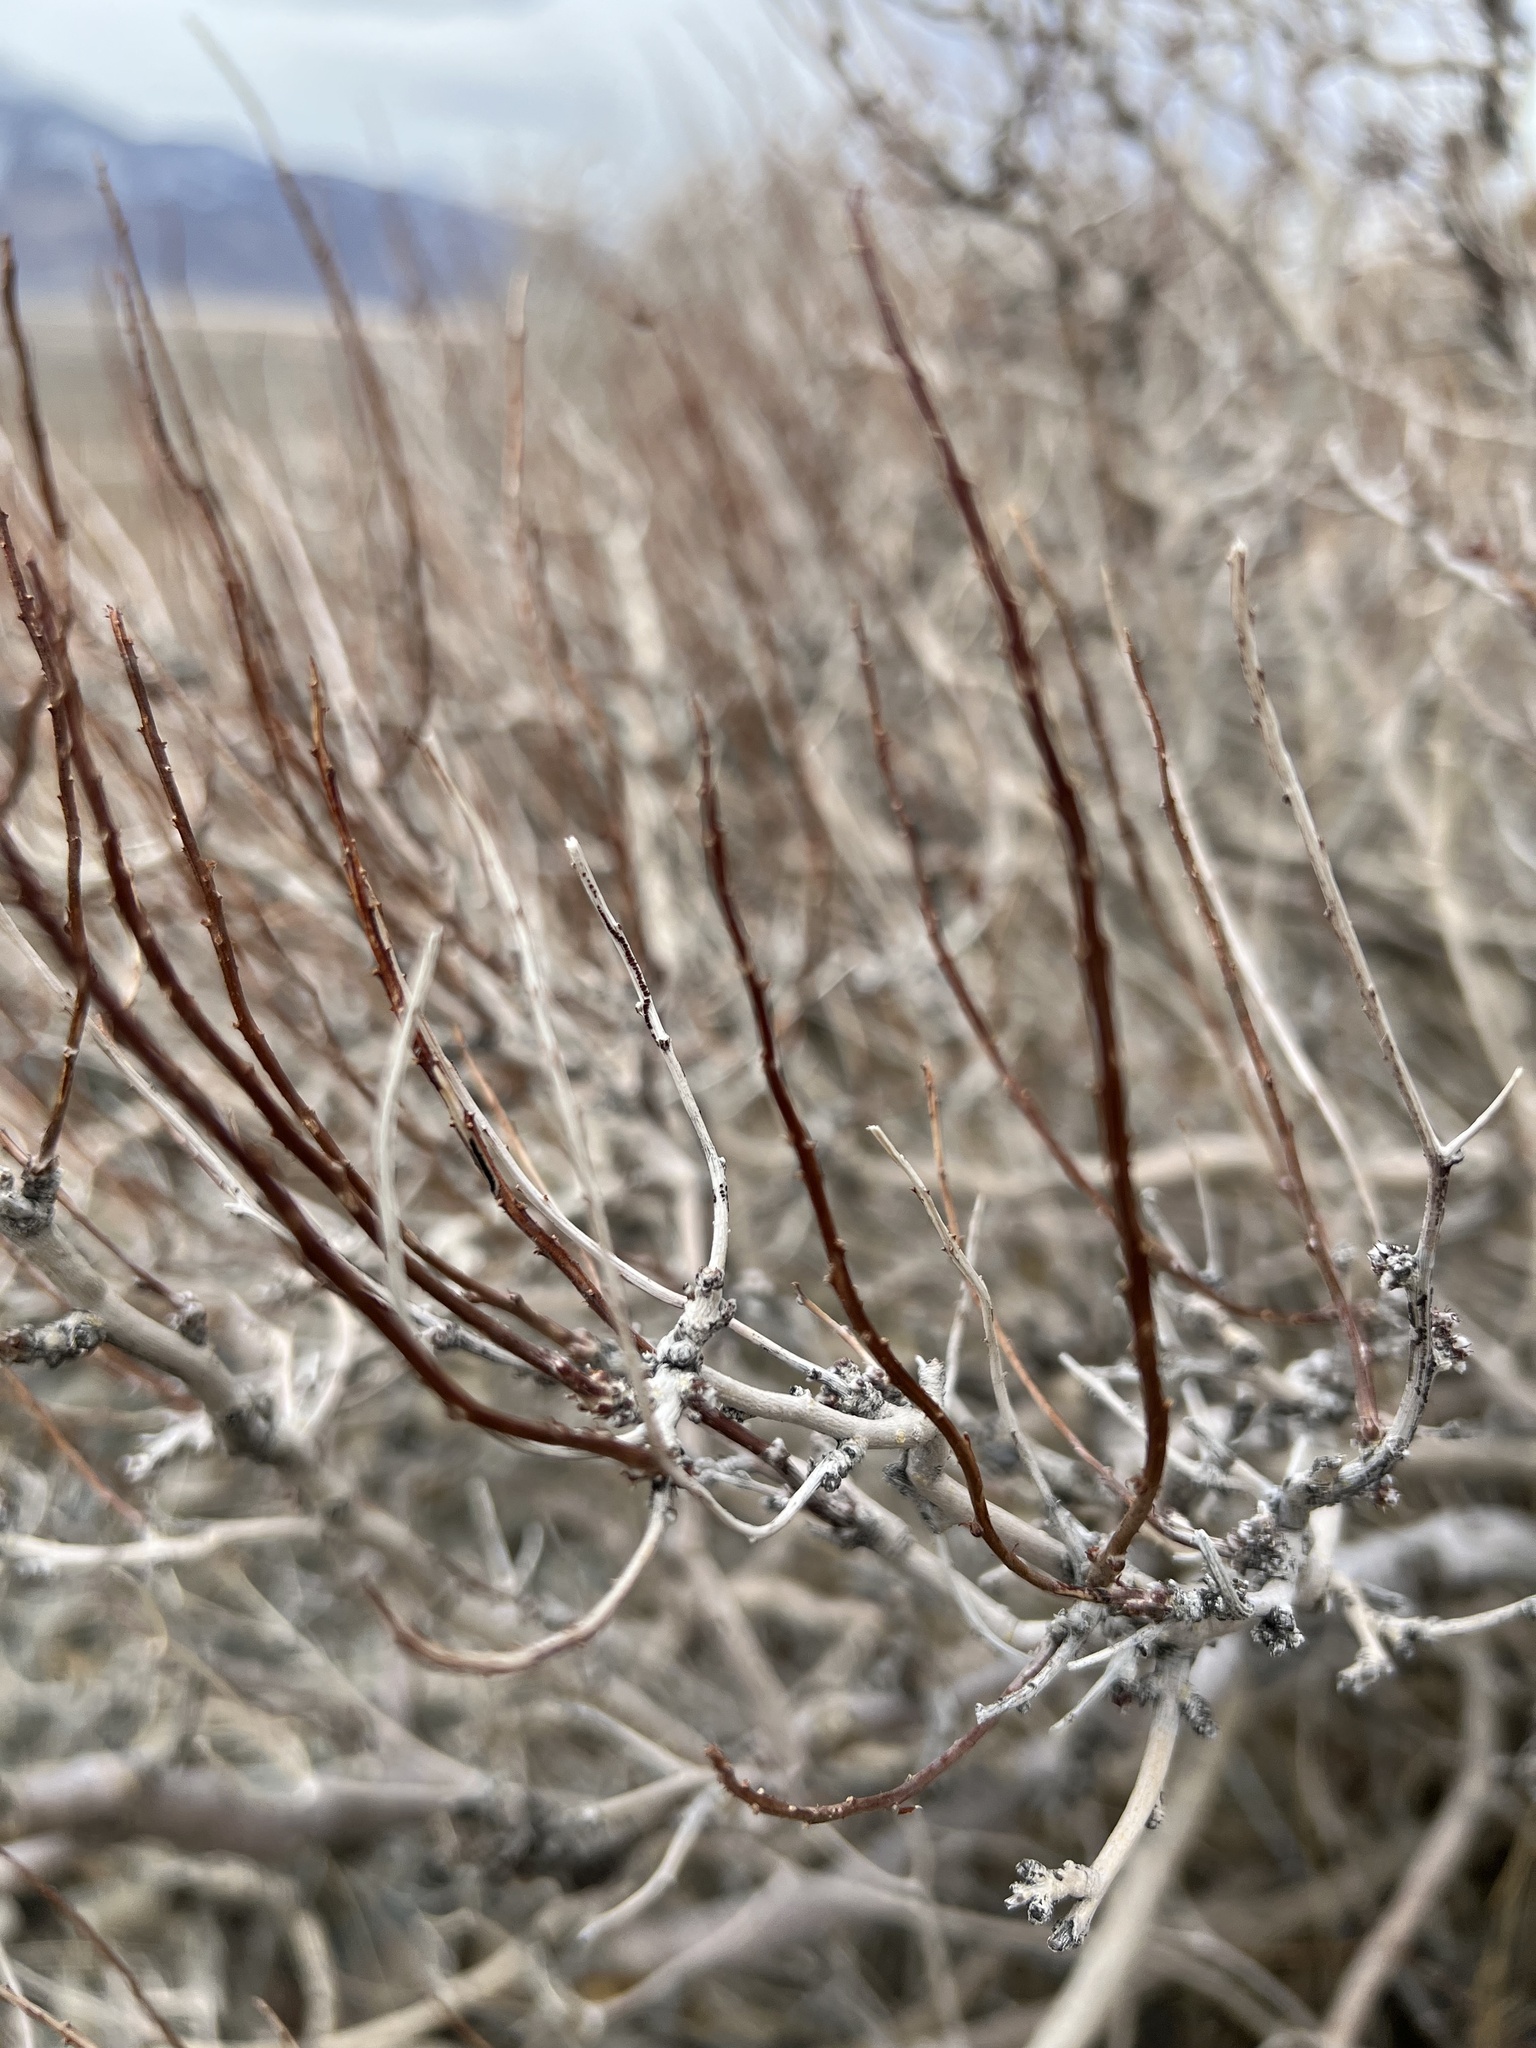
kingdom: Plantae
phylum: Tracheophyta
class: Magnoliopsida
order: Fabales
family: Fabaceae
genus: Psorothamnus
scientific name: Psorothamnus arborescens
